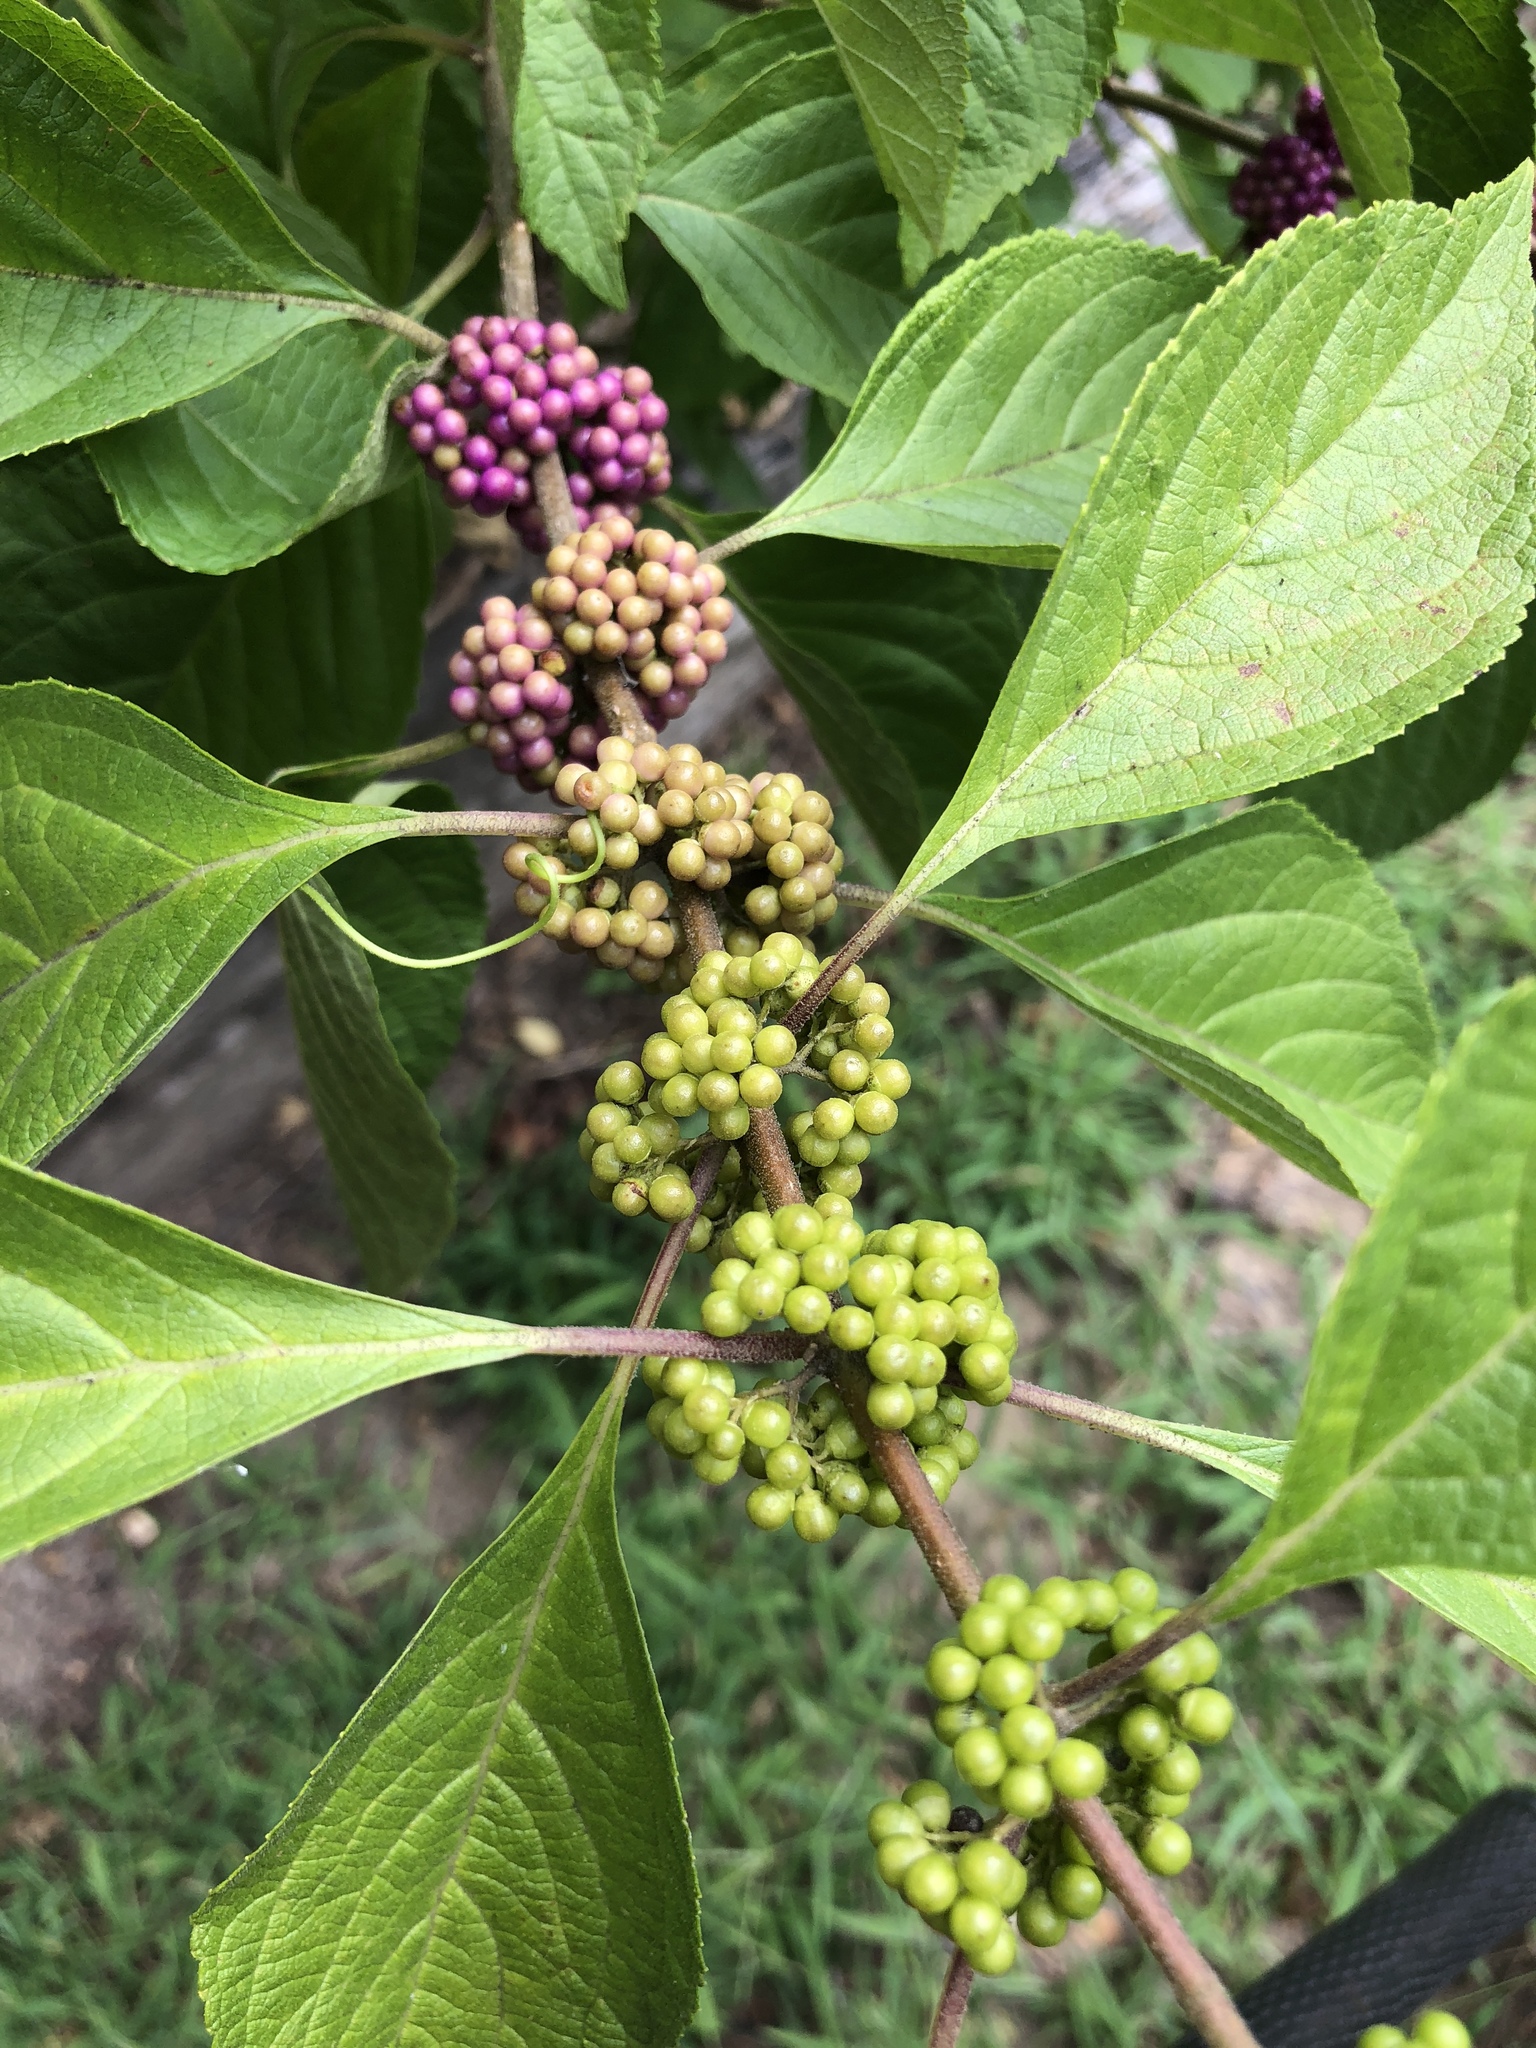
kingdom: Plantae
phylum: Tracheophyta
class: Magnoliopsida
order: Lamiales
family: Lamiaceae
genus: Callicarpa
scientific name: Callicarpa americana
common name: American beautyberry
